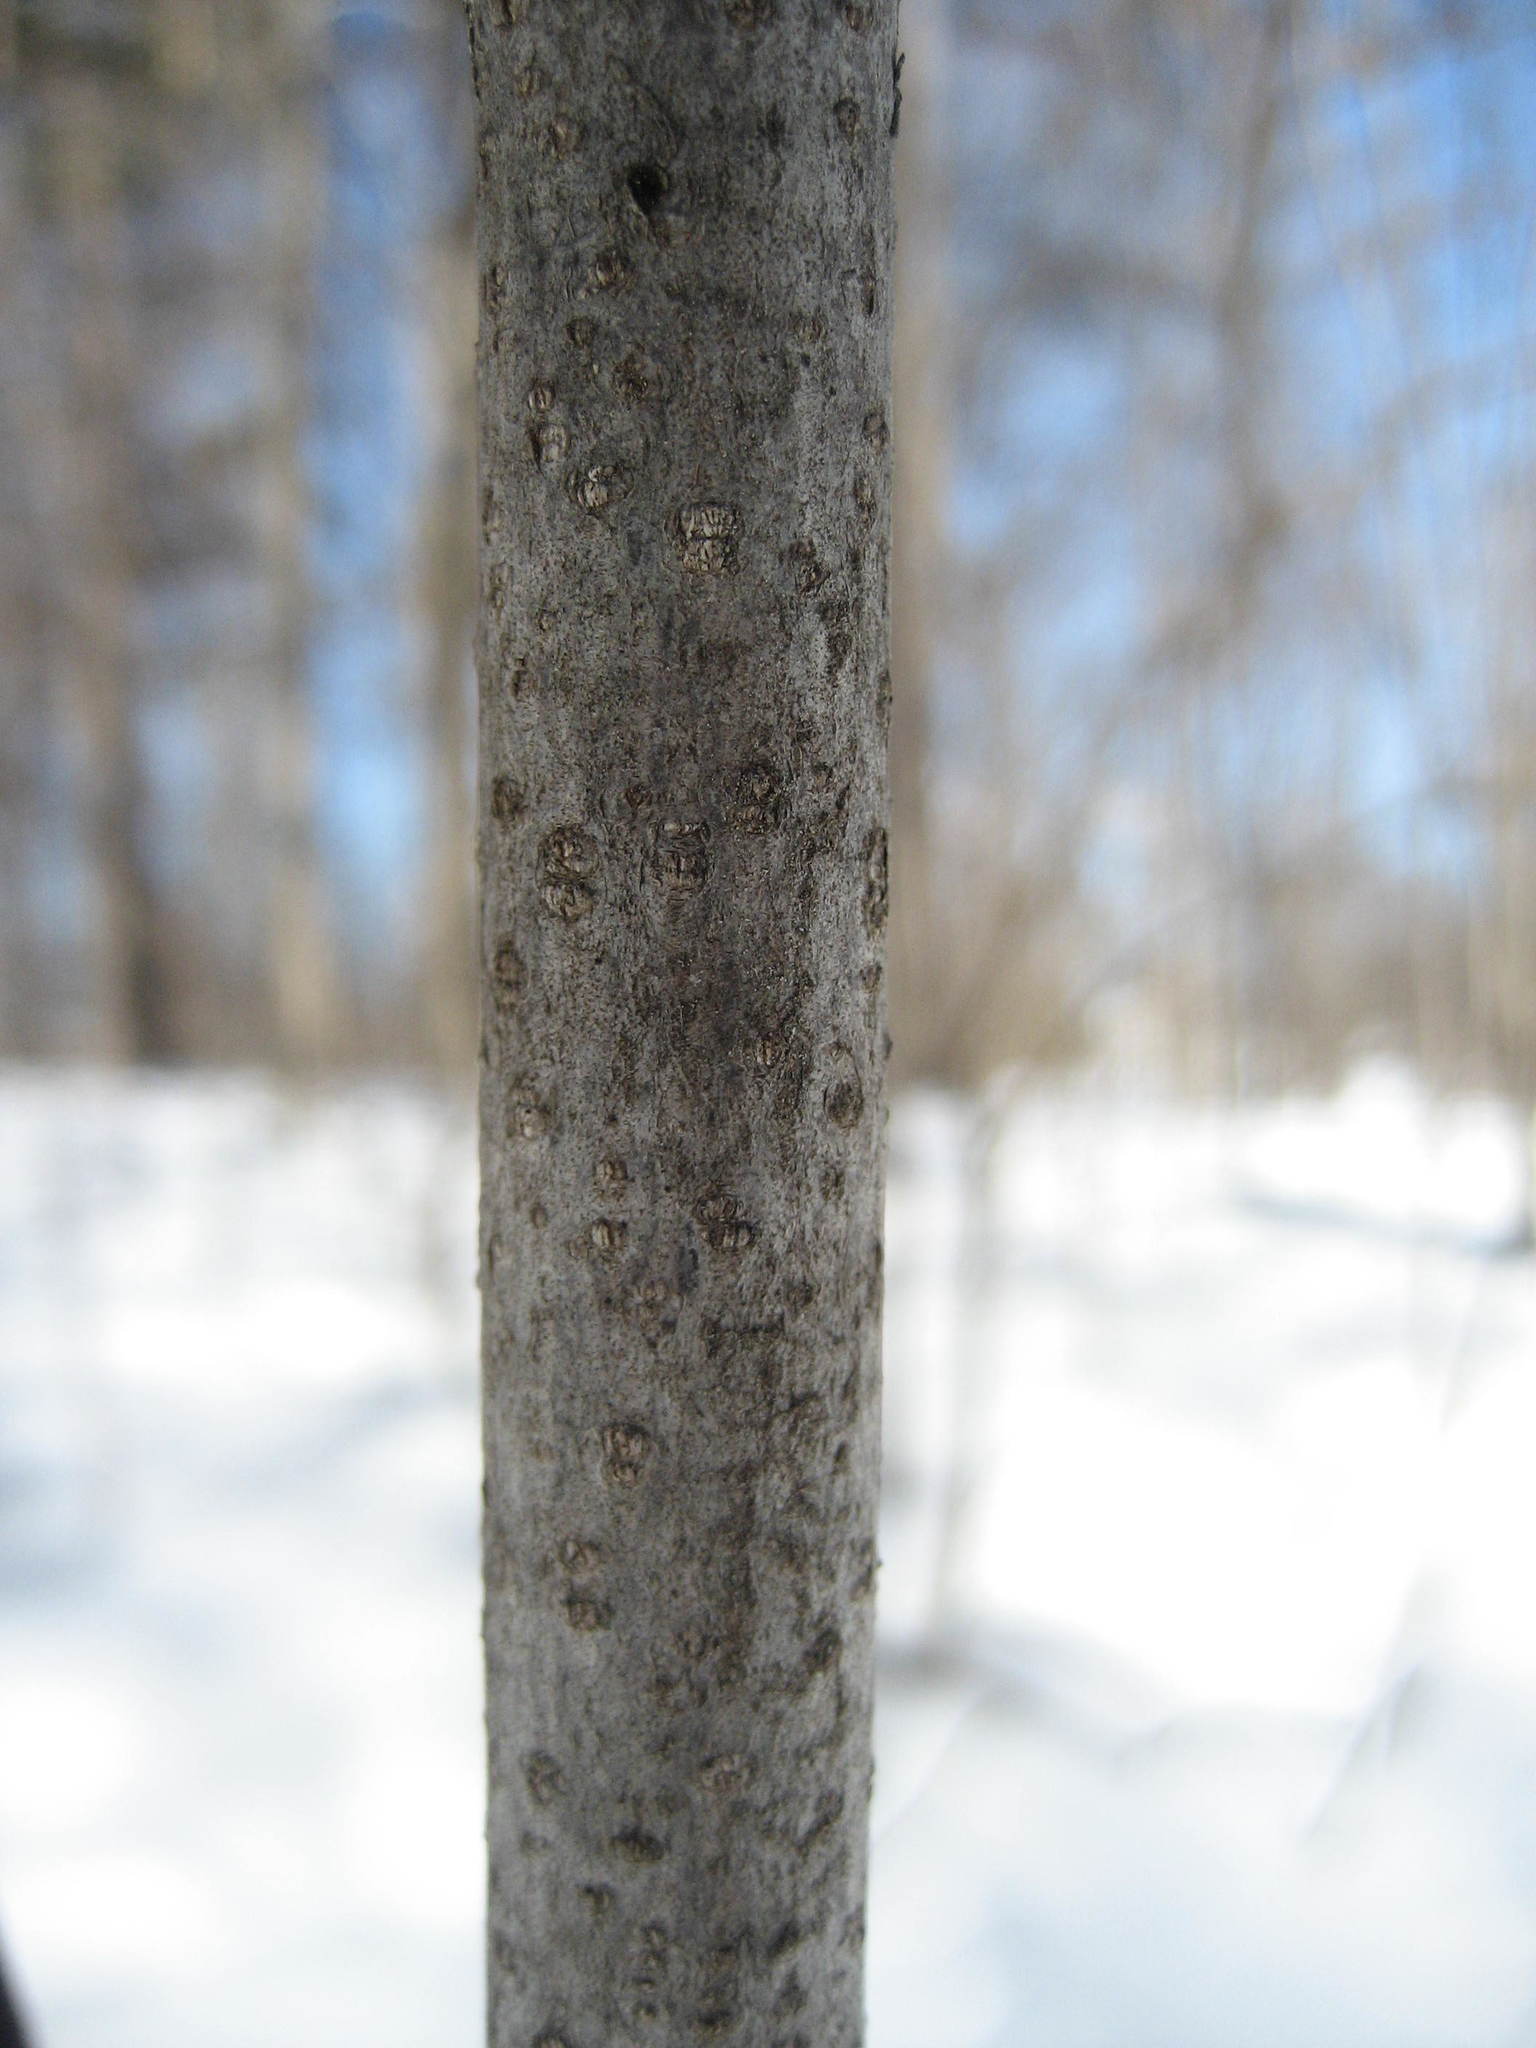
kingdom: Plantae
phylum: Tracheophyta
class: Magnoliopsida
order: Rosales
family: Rhamnaceae
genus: Frangula
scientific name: Frangula alnus
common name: Alder buckthorn
